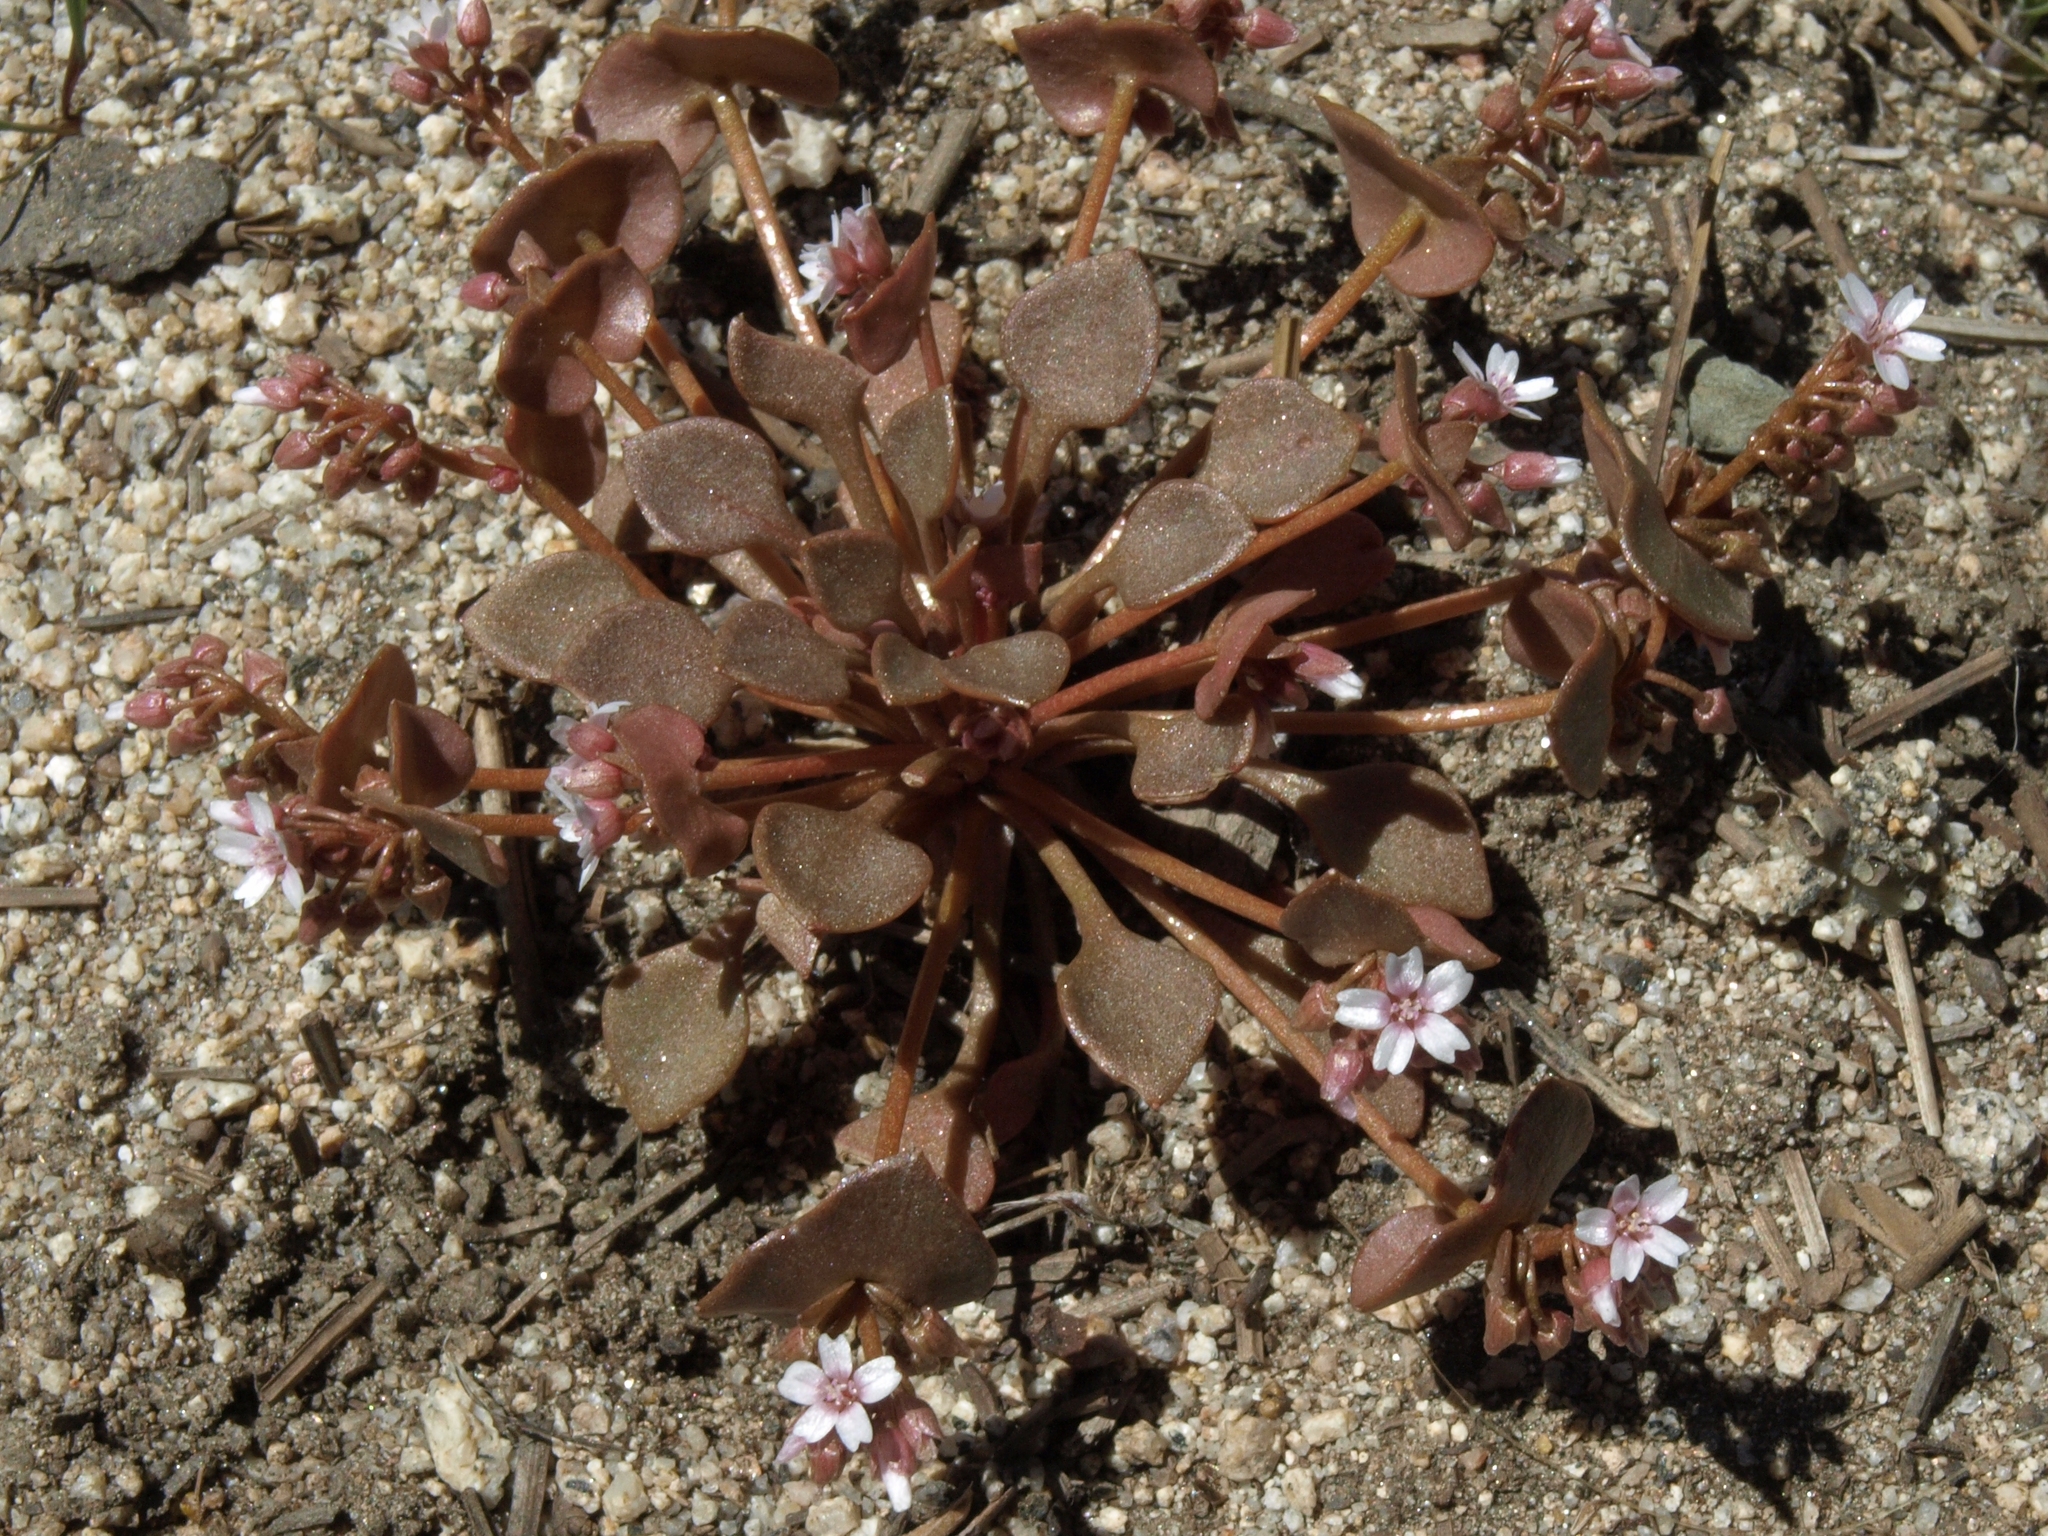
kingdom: Plantae
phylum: Tracheophyta
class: Magnoliopsida
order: Caryophyllales
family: Montiaceae
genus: Claytonia
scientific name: Claytonia rubra
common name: Erubescent miner's-lettuce
